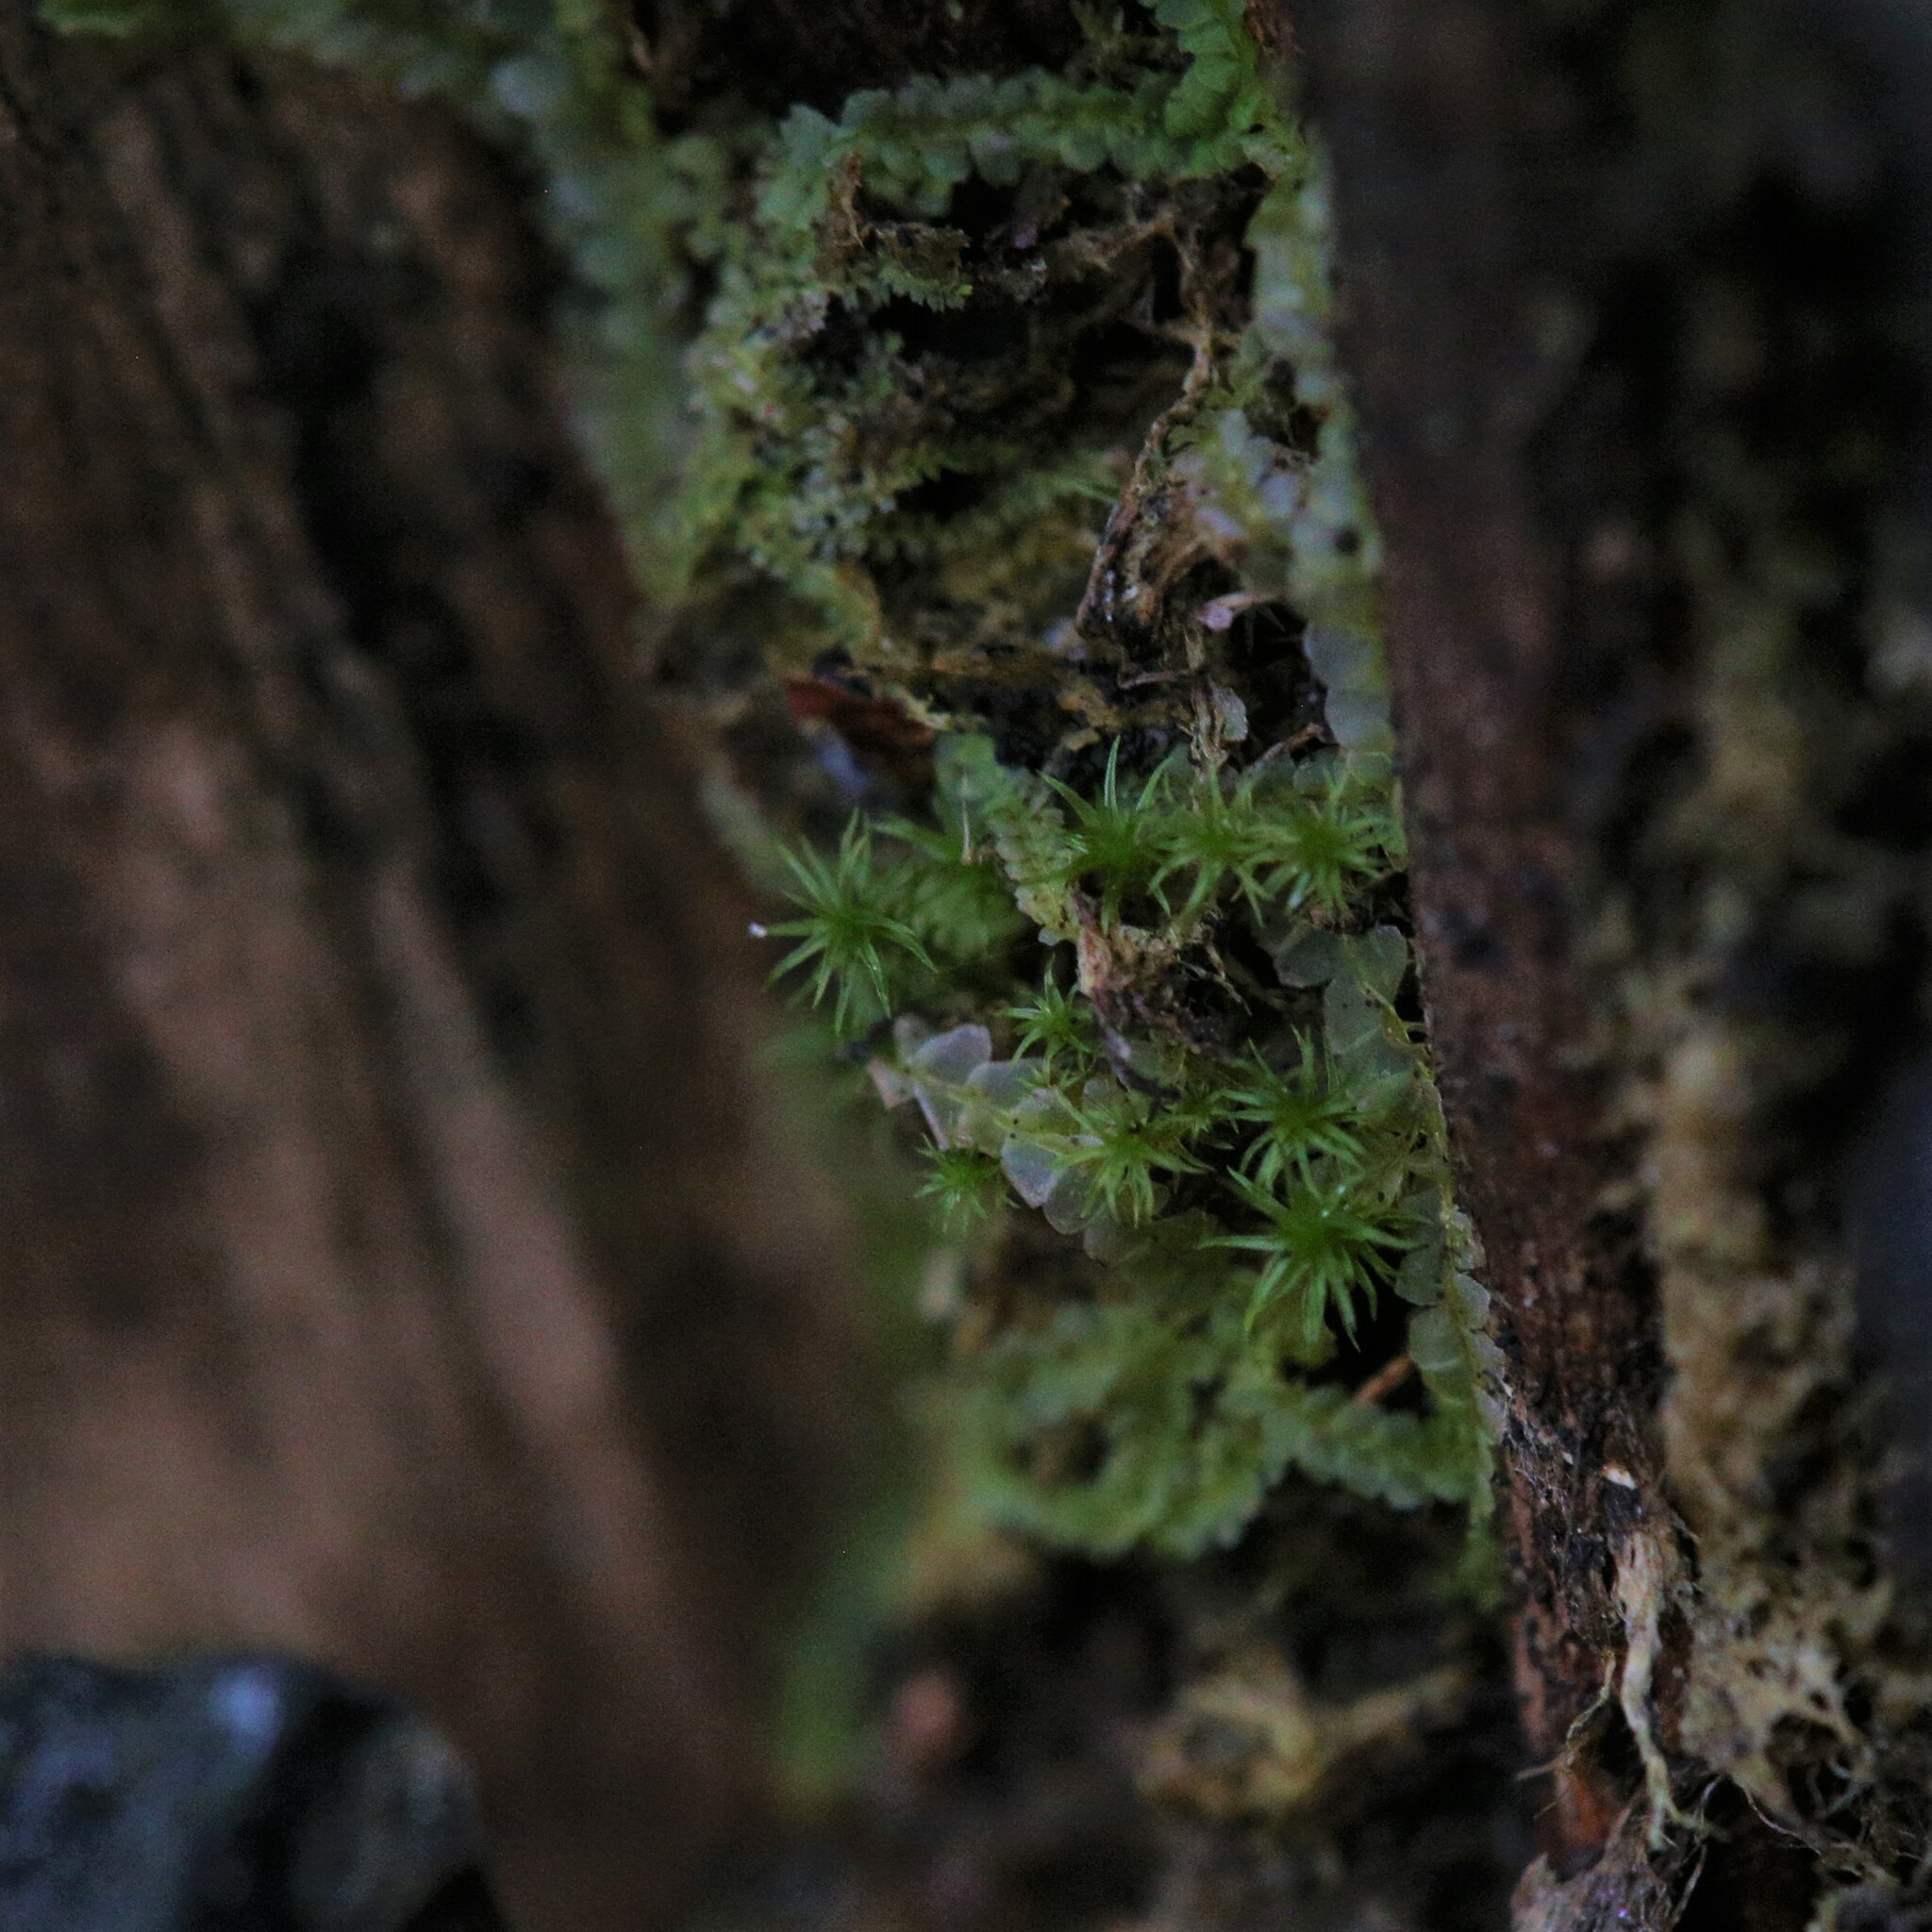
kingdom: Plantae
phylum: Marchantiophyta
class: Jungermanniopsida
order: Jungermanniales
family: Lophocoleaceae
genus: Lophocolea
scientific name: Lophocolea semiteres
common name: Southern crestwort
